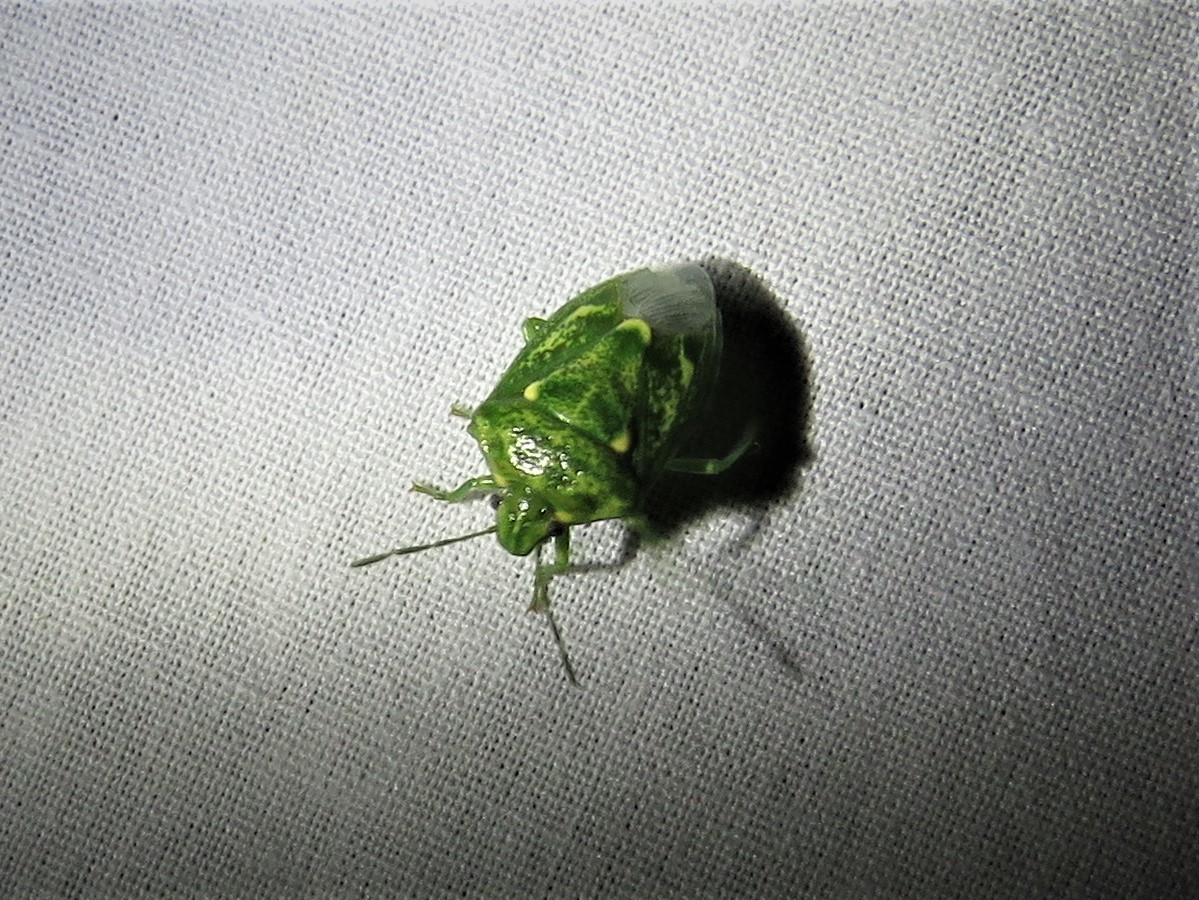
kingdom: Animalia
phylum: Arthropoda
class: Insecta
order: Hemiptera
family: Pentatomidae
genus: Banasa
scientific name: Banasa euchlora
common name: Cedar berry bug
